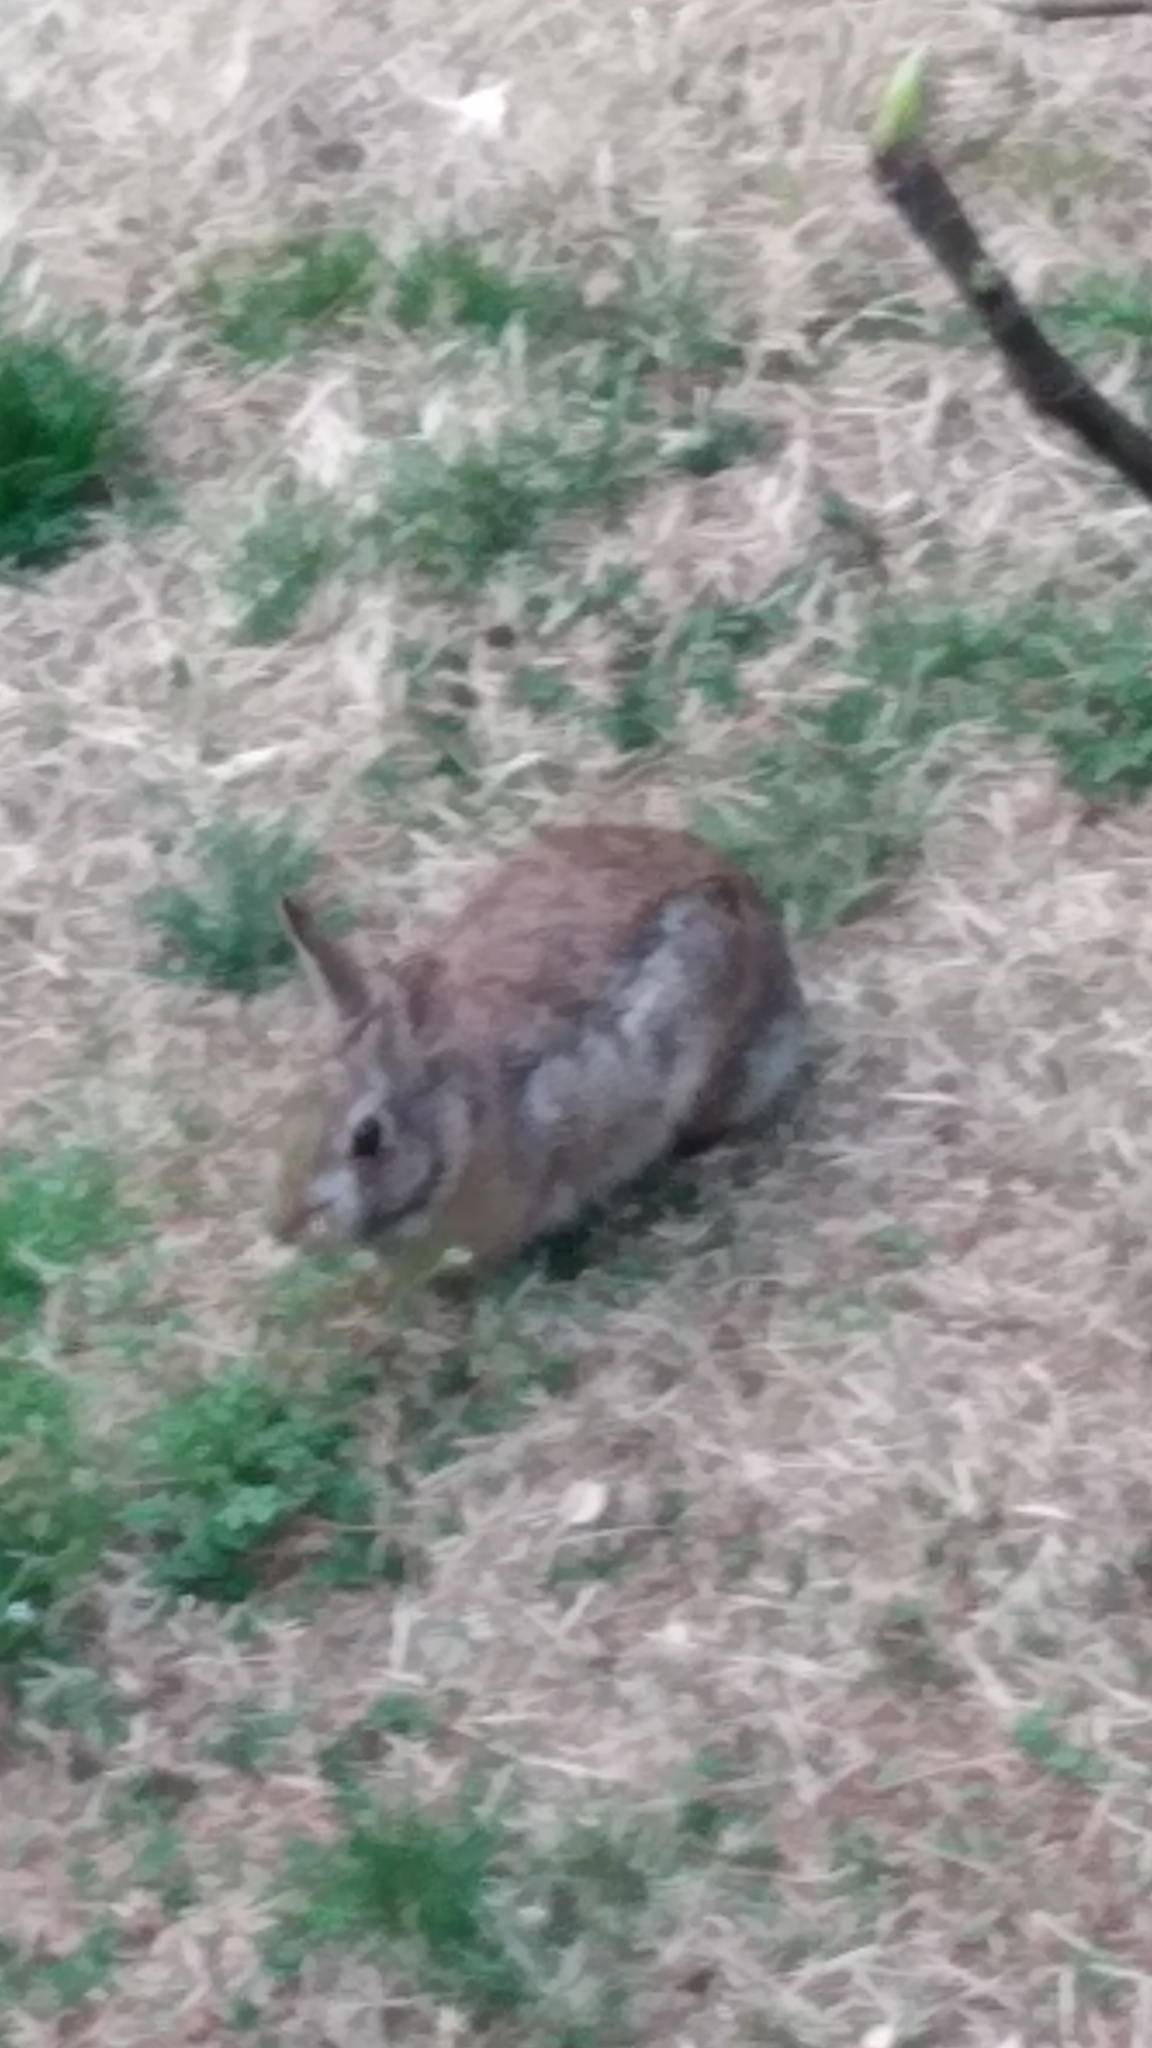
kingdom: Animalia
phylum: Chordata
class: Mammalia
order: Lagomorpha
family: Leporidae
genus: Sylvilagus
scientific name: Sylvilagus floridanus
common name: Eastern cottontail
